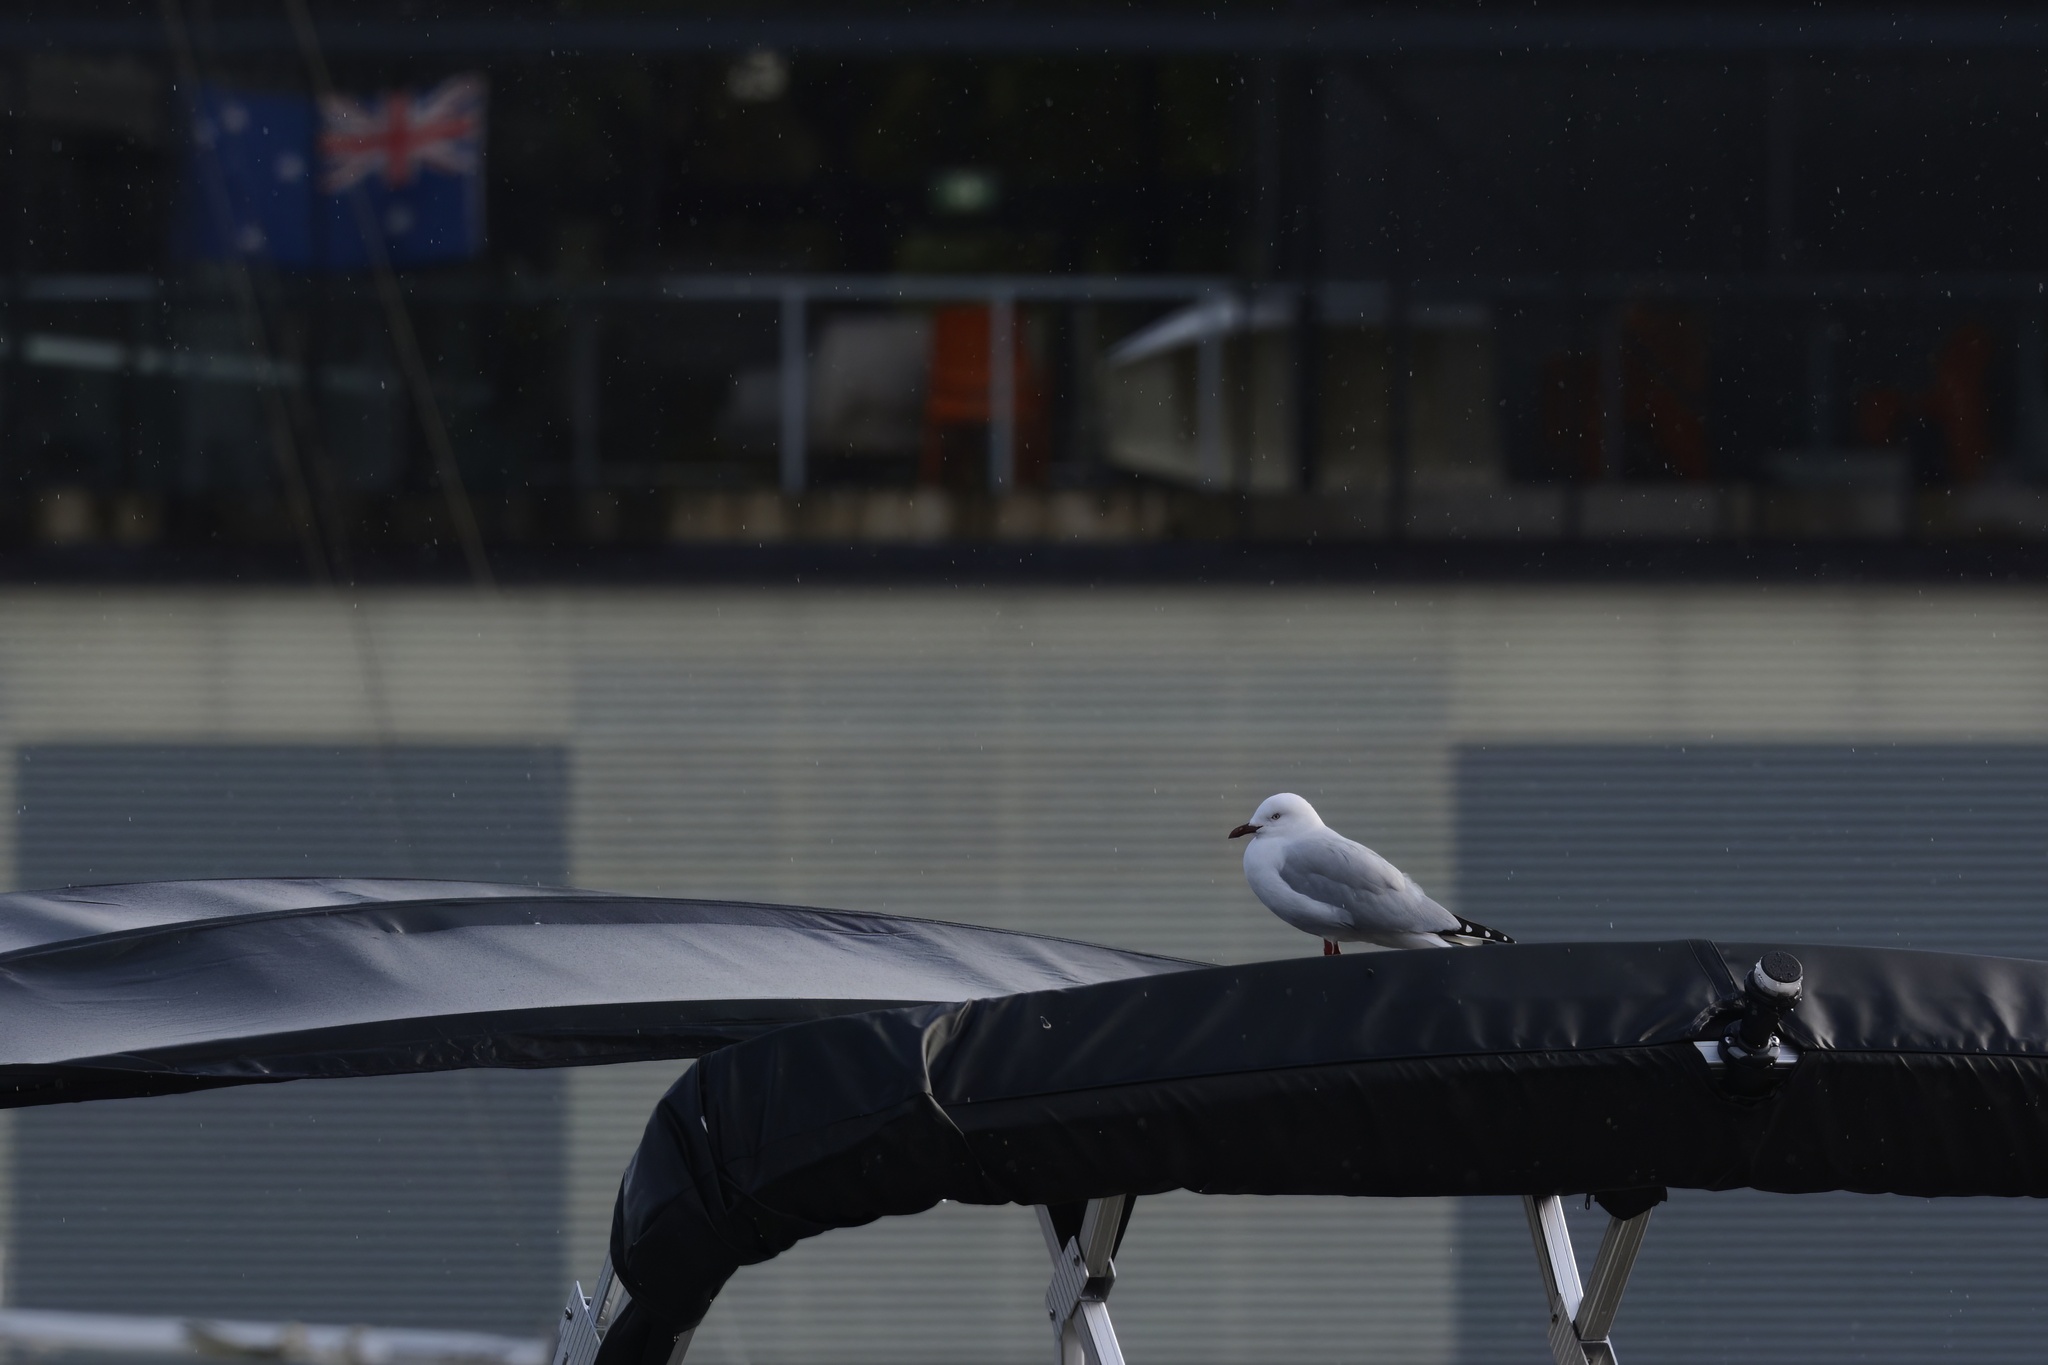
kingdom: Animalia
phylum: Chordata
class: Aves
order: Charadriiformes
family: Laridae
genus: Chroicocephalus
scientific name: Chroicocephalus novaehollandiae
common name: Silver gull
